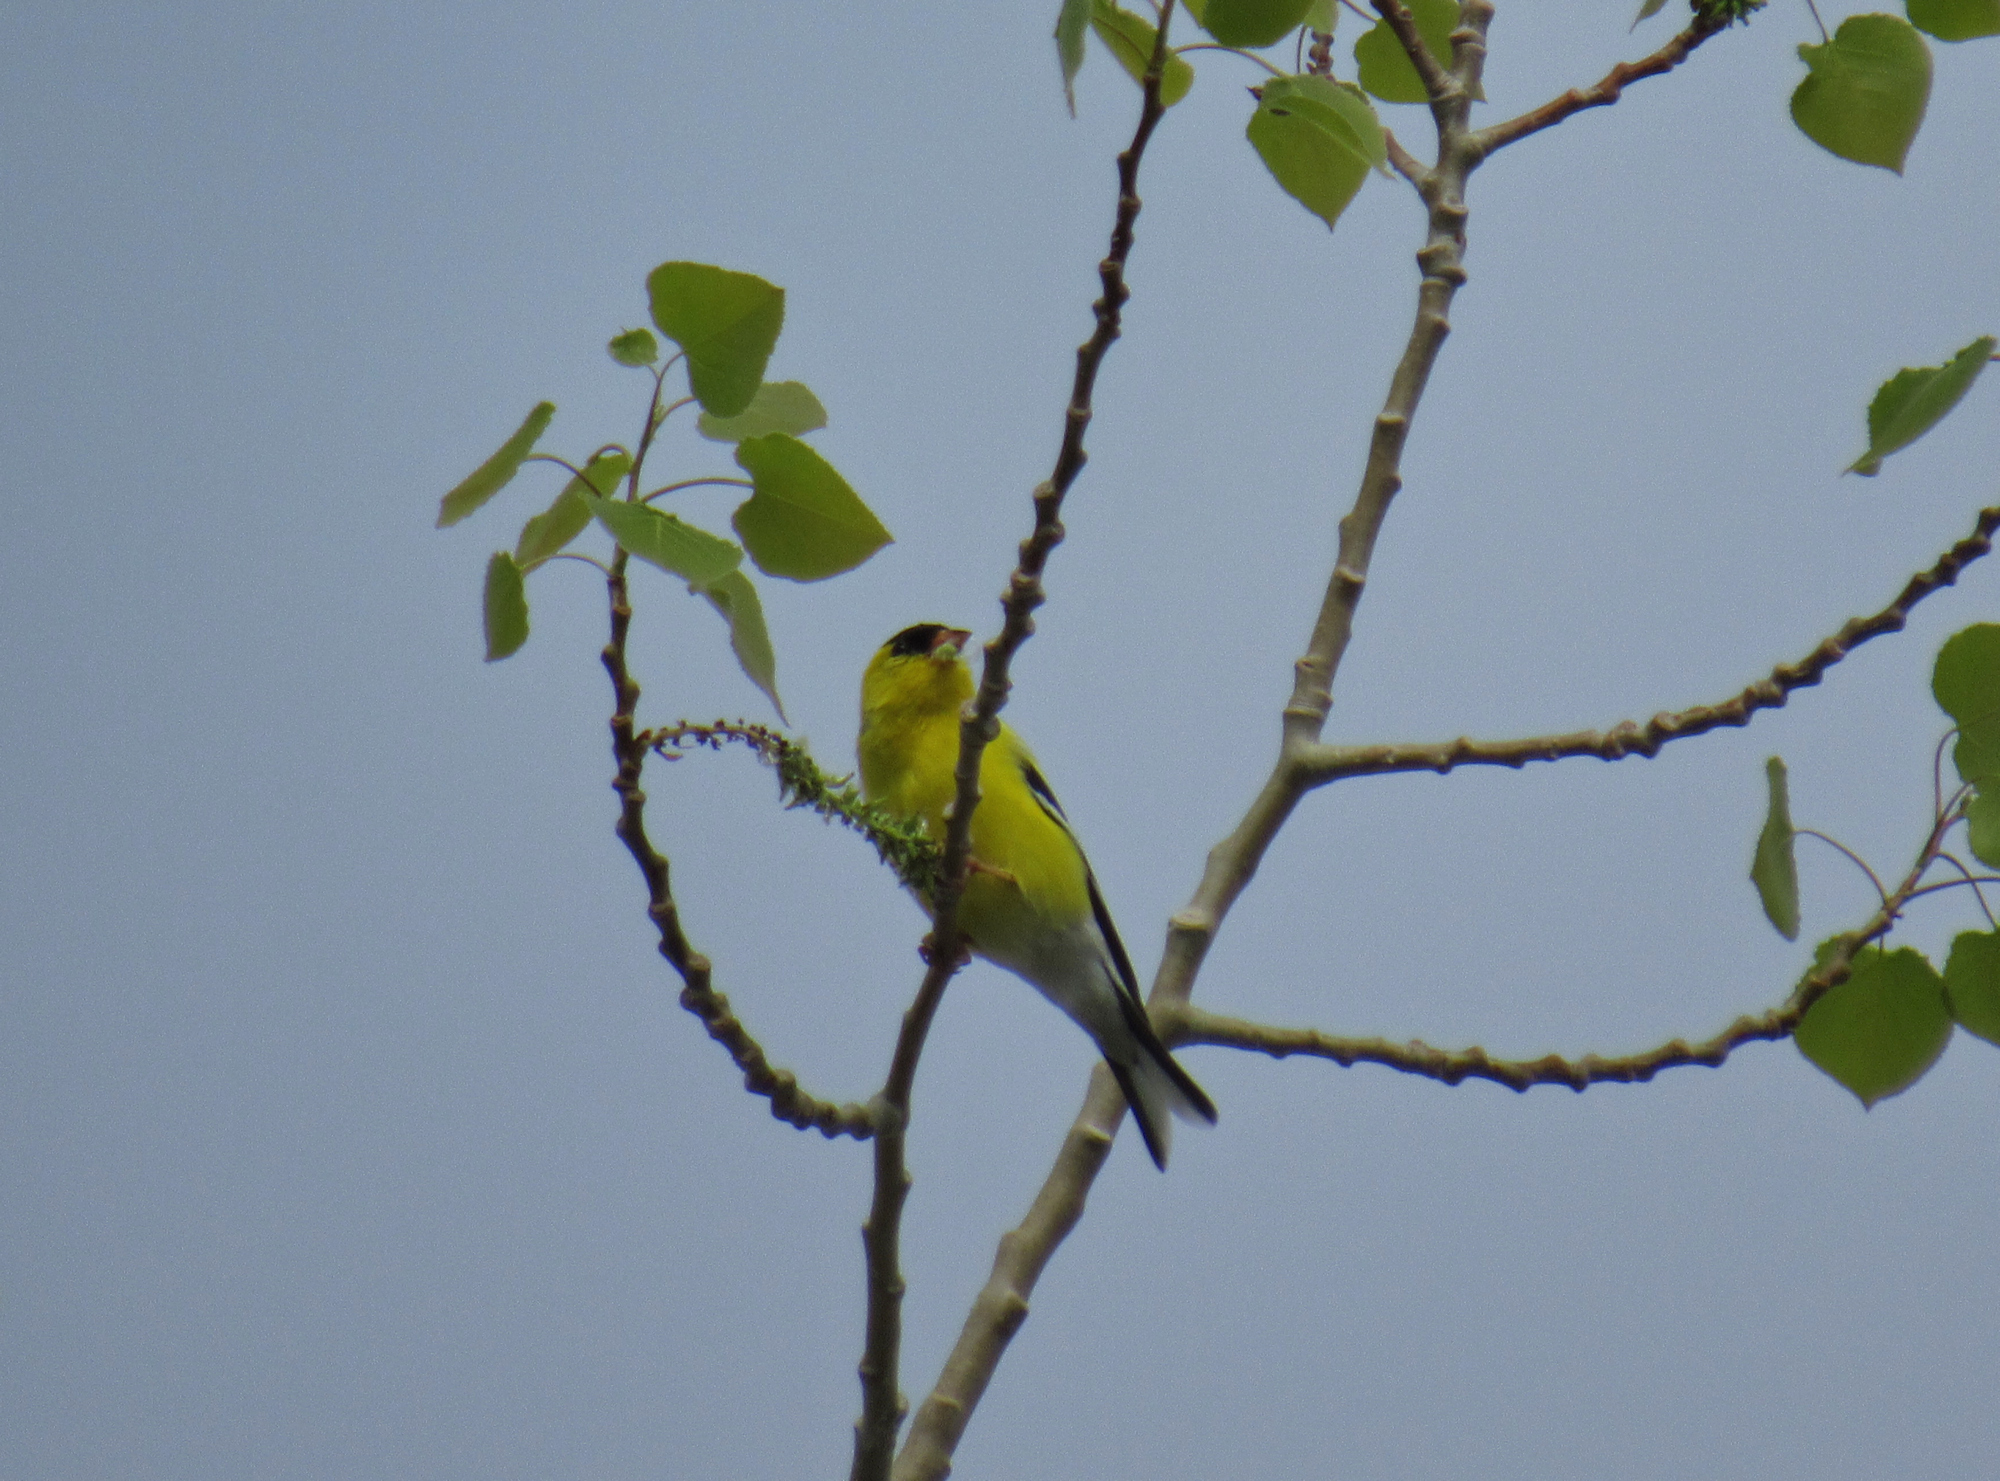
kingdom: Animalia
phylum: Chordata
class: Aves
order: Passeriformes
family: Fringillidae
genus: Spinus
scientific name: Spinus tristis
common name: American goldfinch
